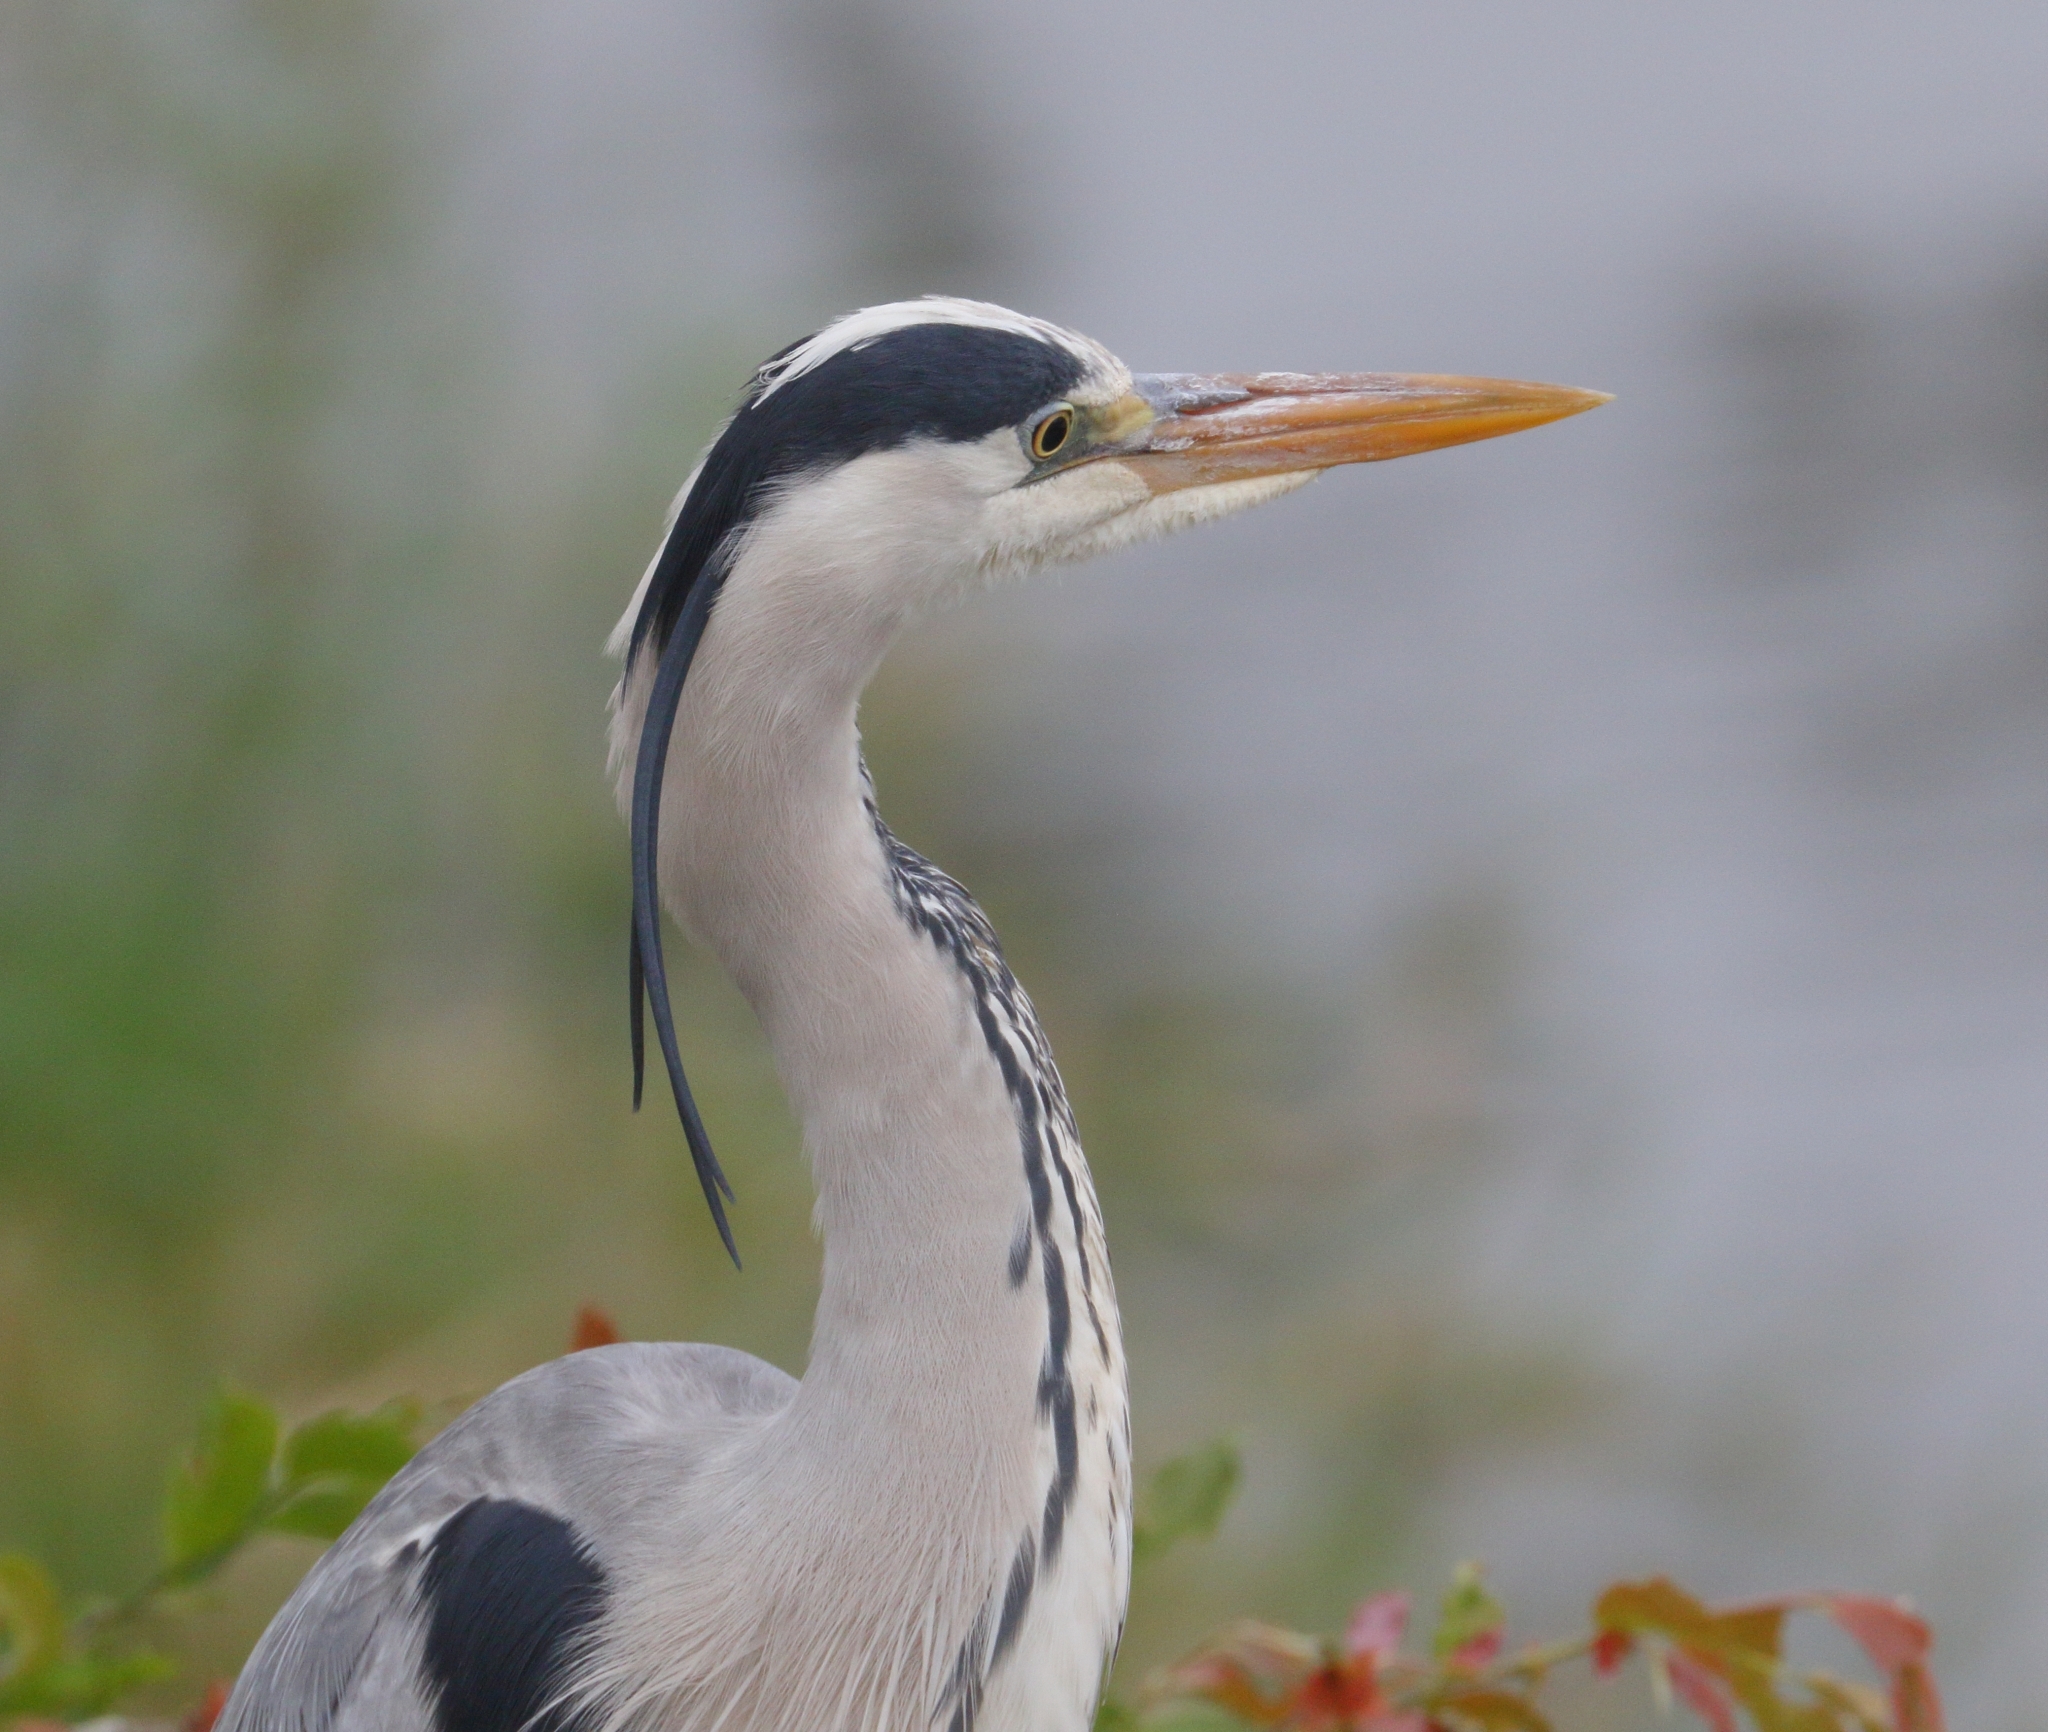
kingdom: Animalia
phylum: Chordata
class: Aves
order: Pelecaniformes
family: Ardeidae
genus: Ardea
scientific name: Ardea cinerea
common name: Grey heron
